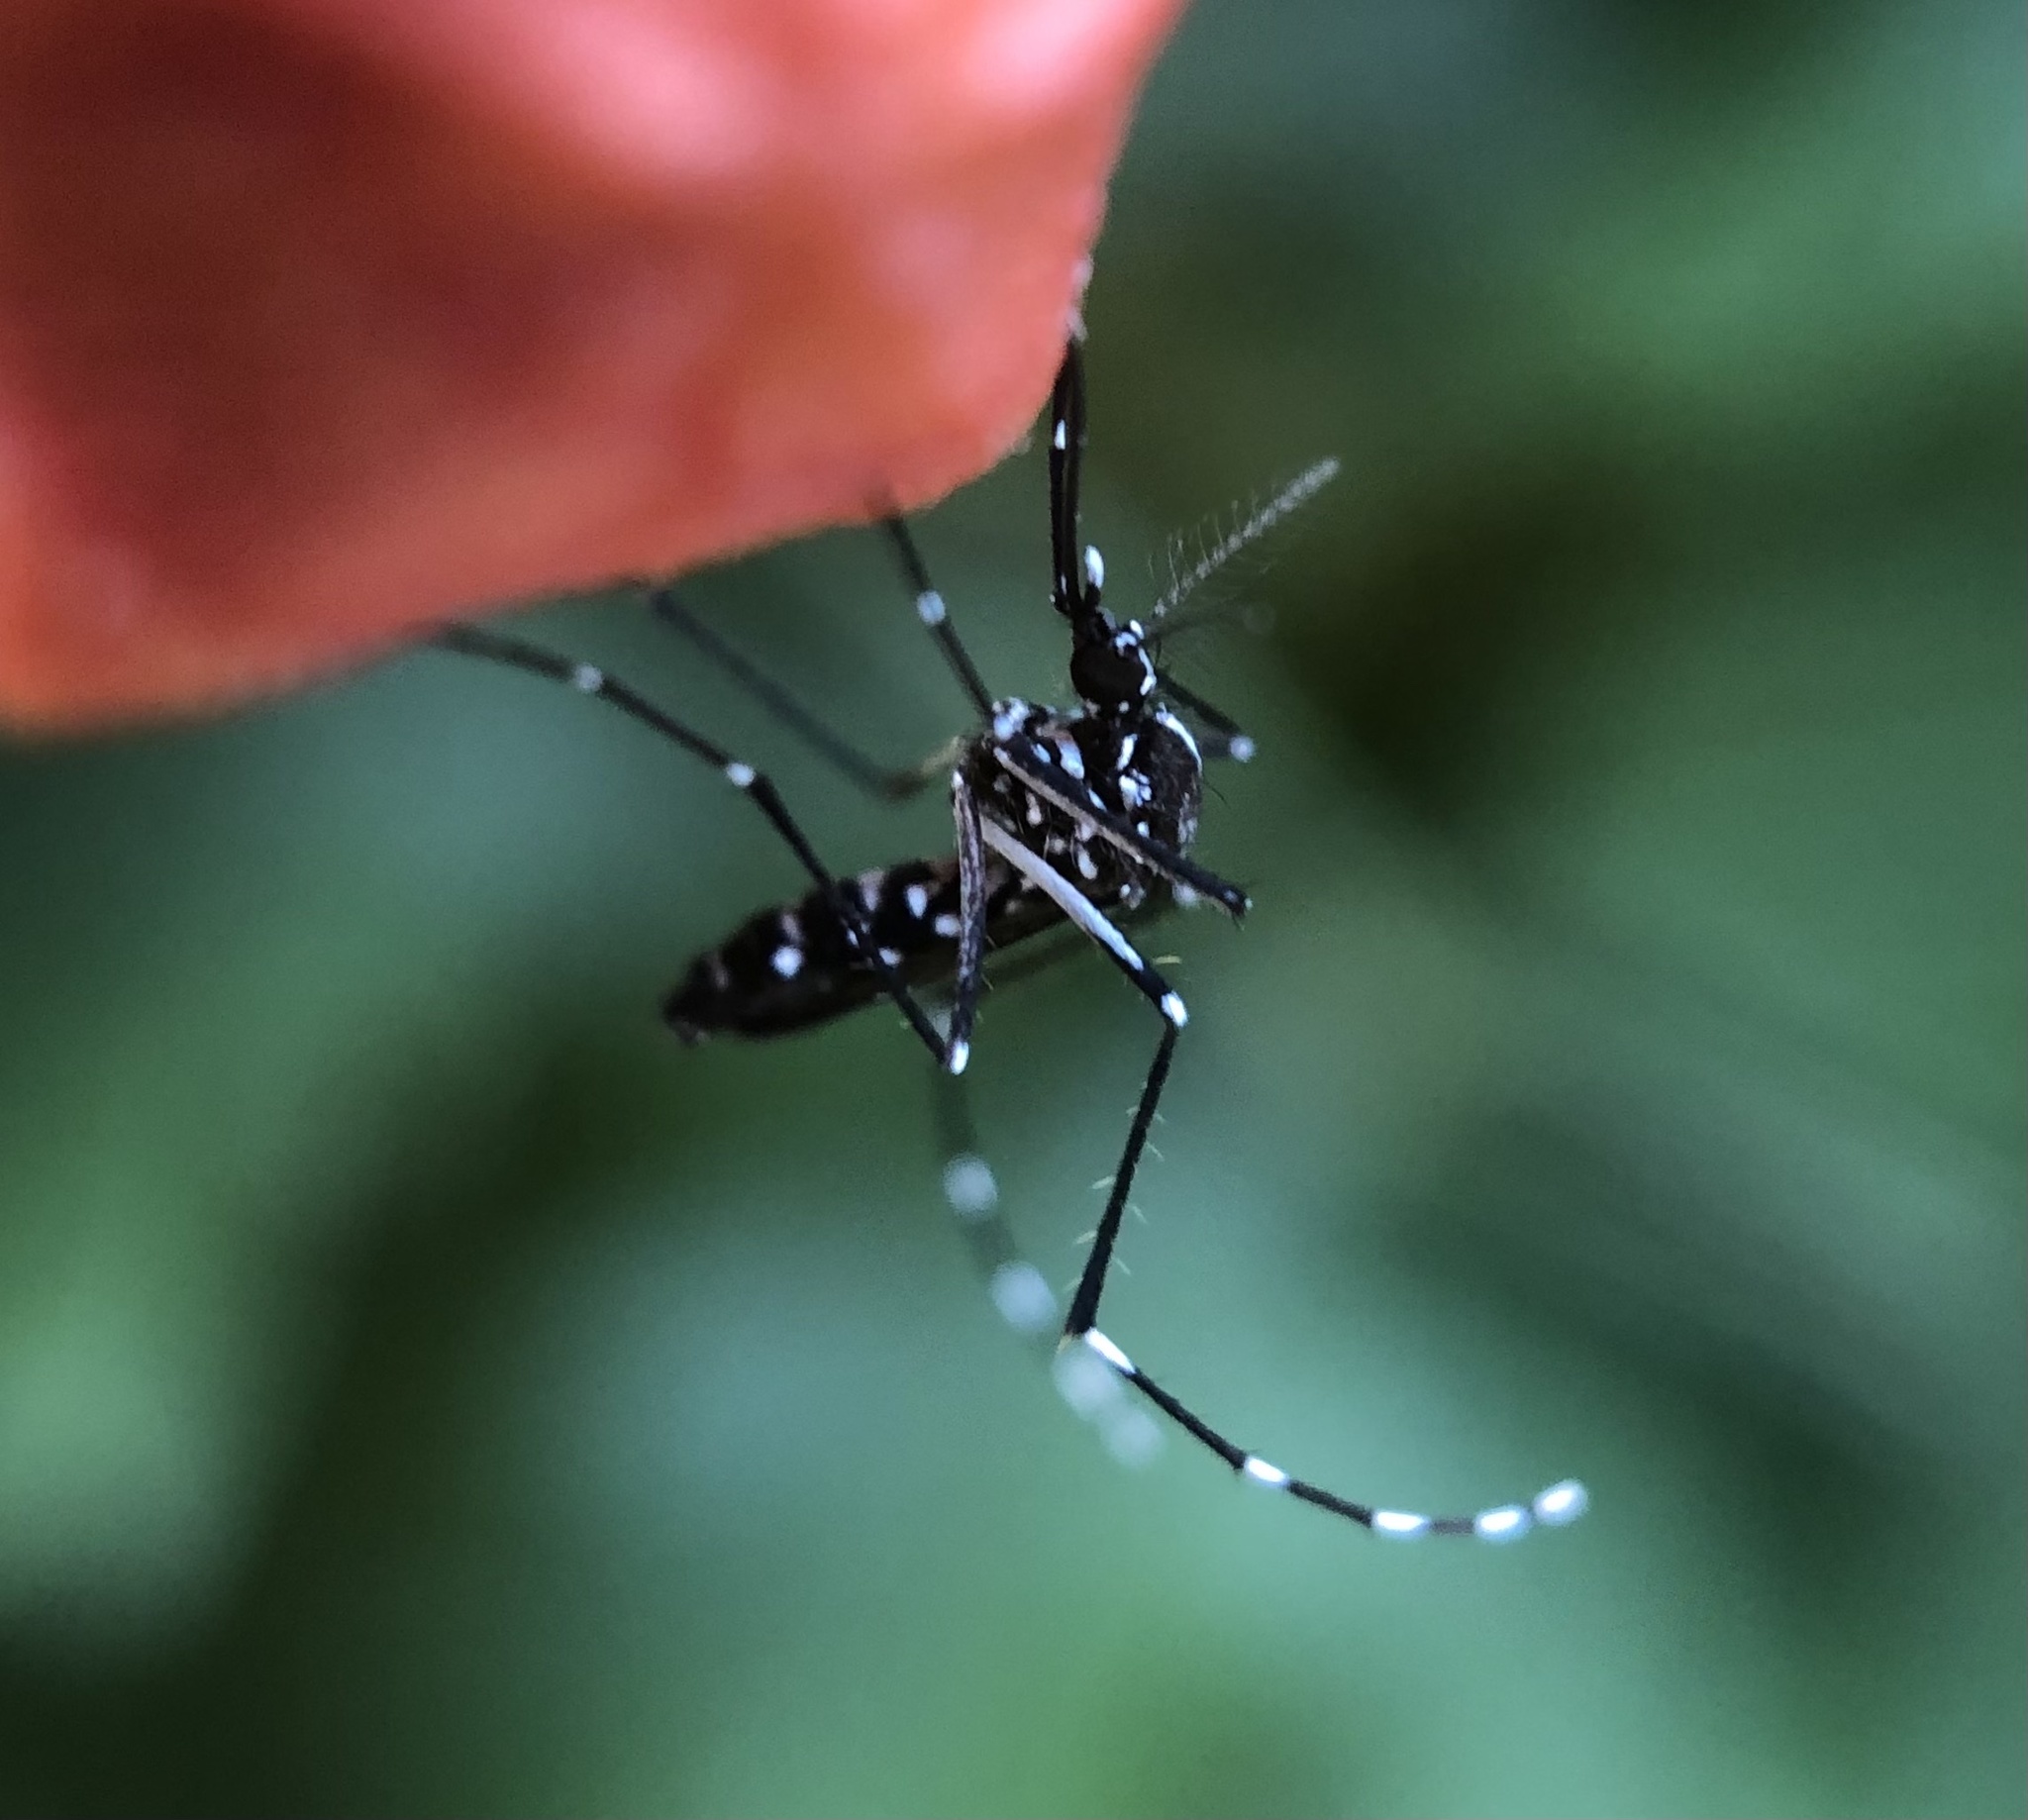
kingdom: Animalia
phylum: Arthropoda
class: Insecta
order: Diptera
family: Culicidae
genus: Aedes
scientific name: Aedes albopictus
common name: Tiger mosquito
